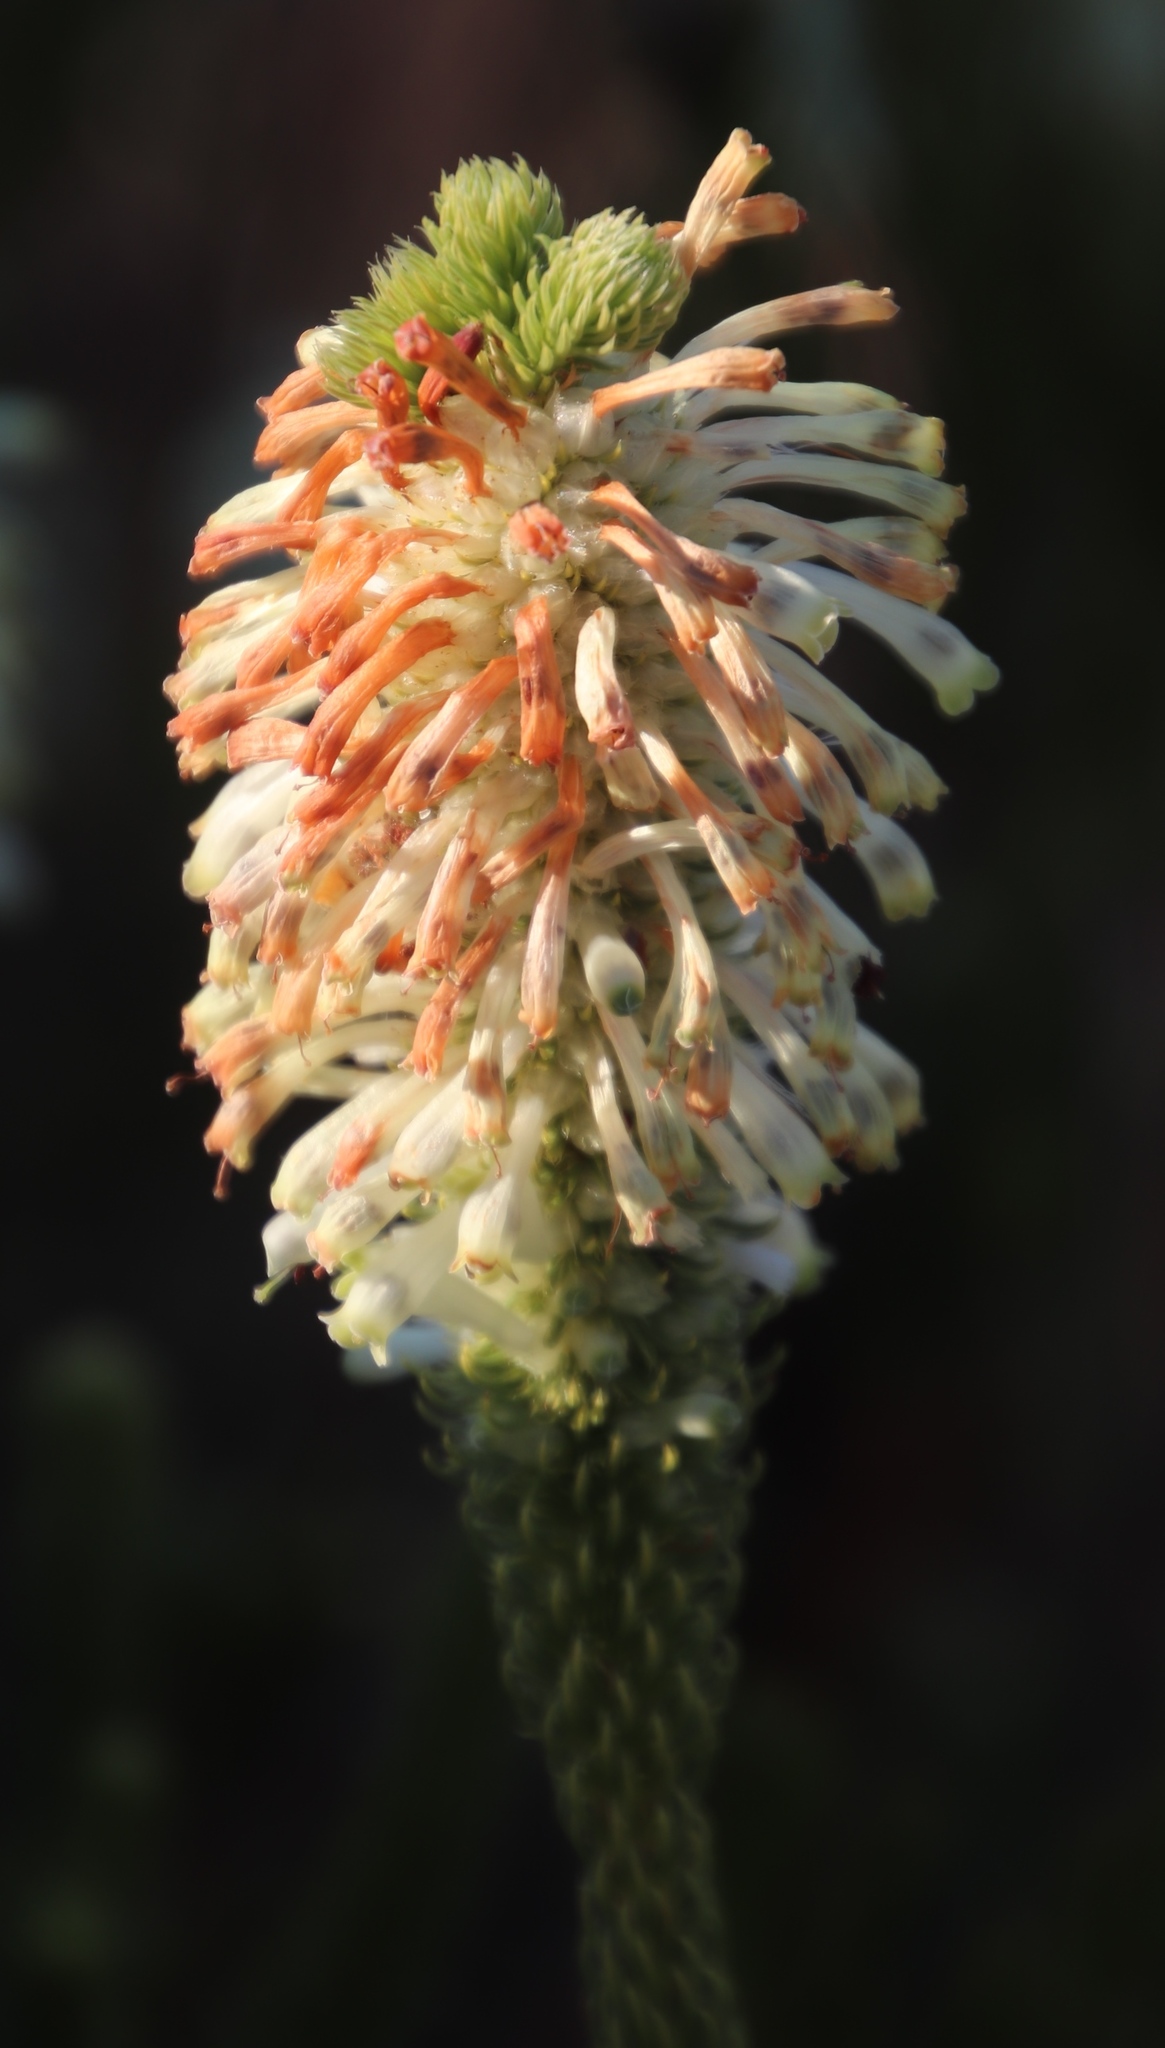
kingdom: Plantae
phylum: Tracheophyta
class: Magnoliopsida
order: Ericales
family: Ericaceae
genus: Erica
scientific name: Erica sessiliflora
